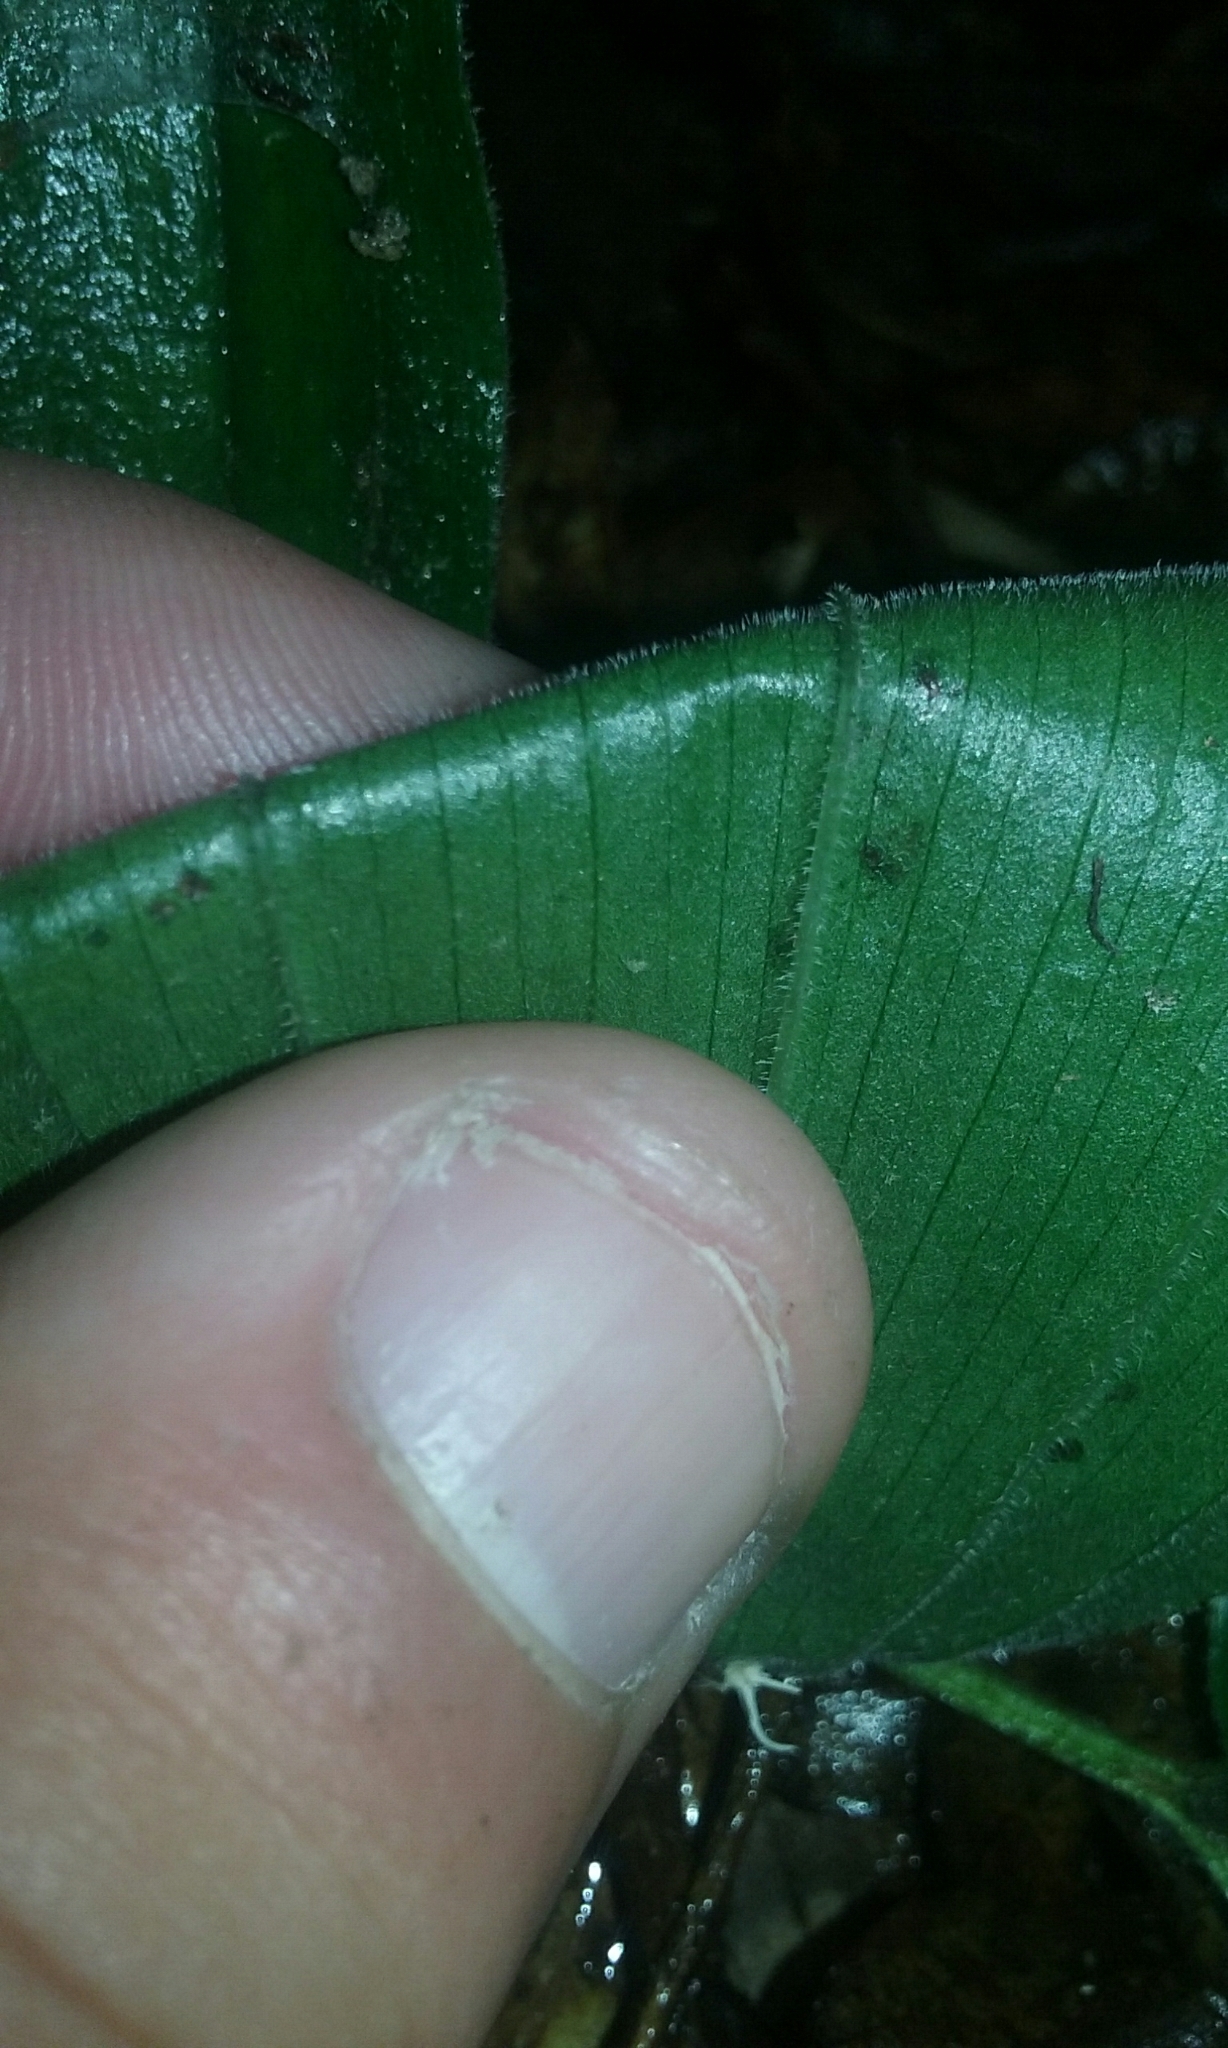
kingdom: Plantae
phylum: Tracheophyta
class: Liliopsida
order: Asparagales
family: Asparagaceae
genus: Maianthemum
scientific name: Maianthemum racemosum
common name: False spikenard
